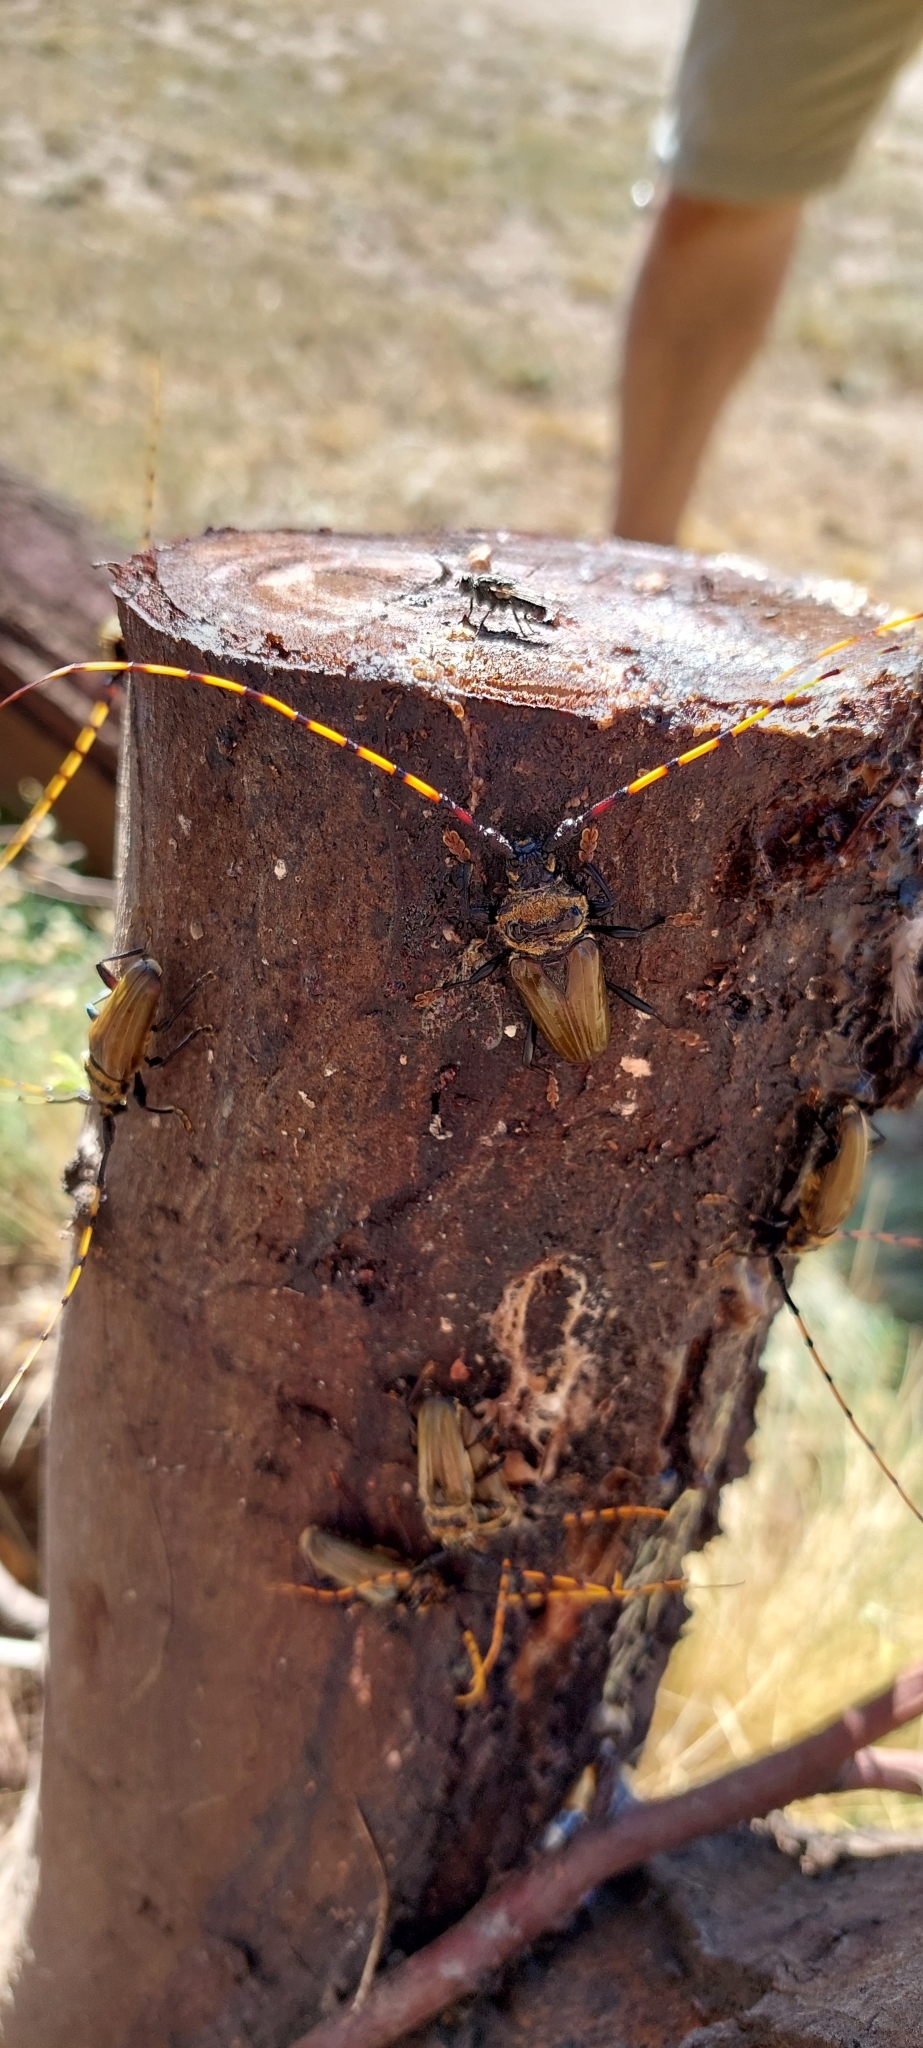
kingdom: Animalia
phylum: Arthropoda
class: Insecta
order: Coleoptera
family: Cerambycidae
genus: Retrachydes
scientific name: Retrachydes thoracicus
